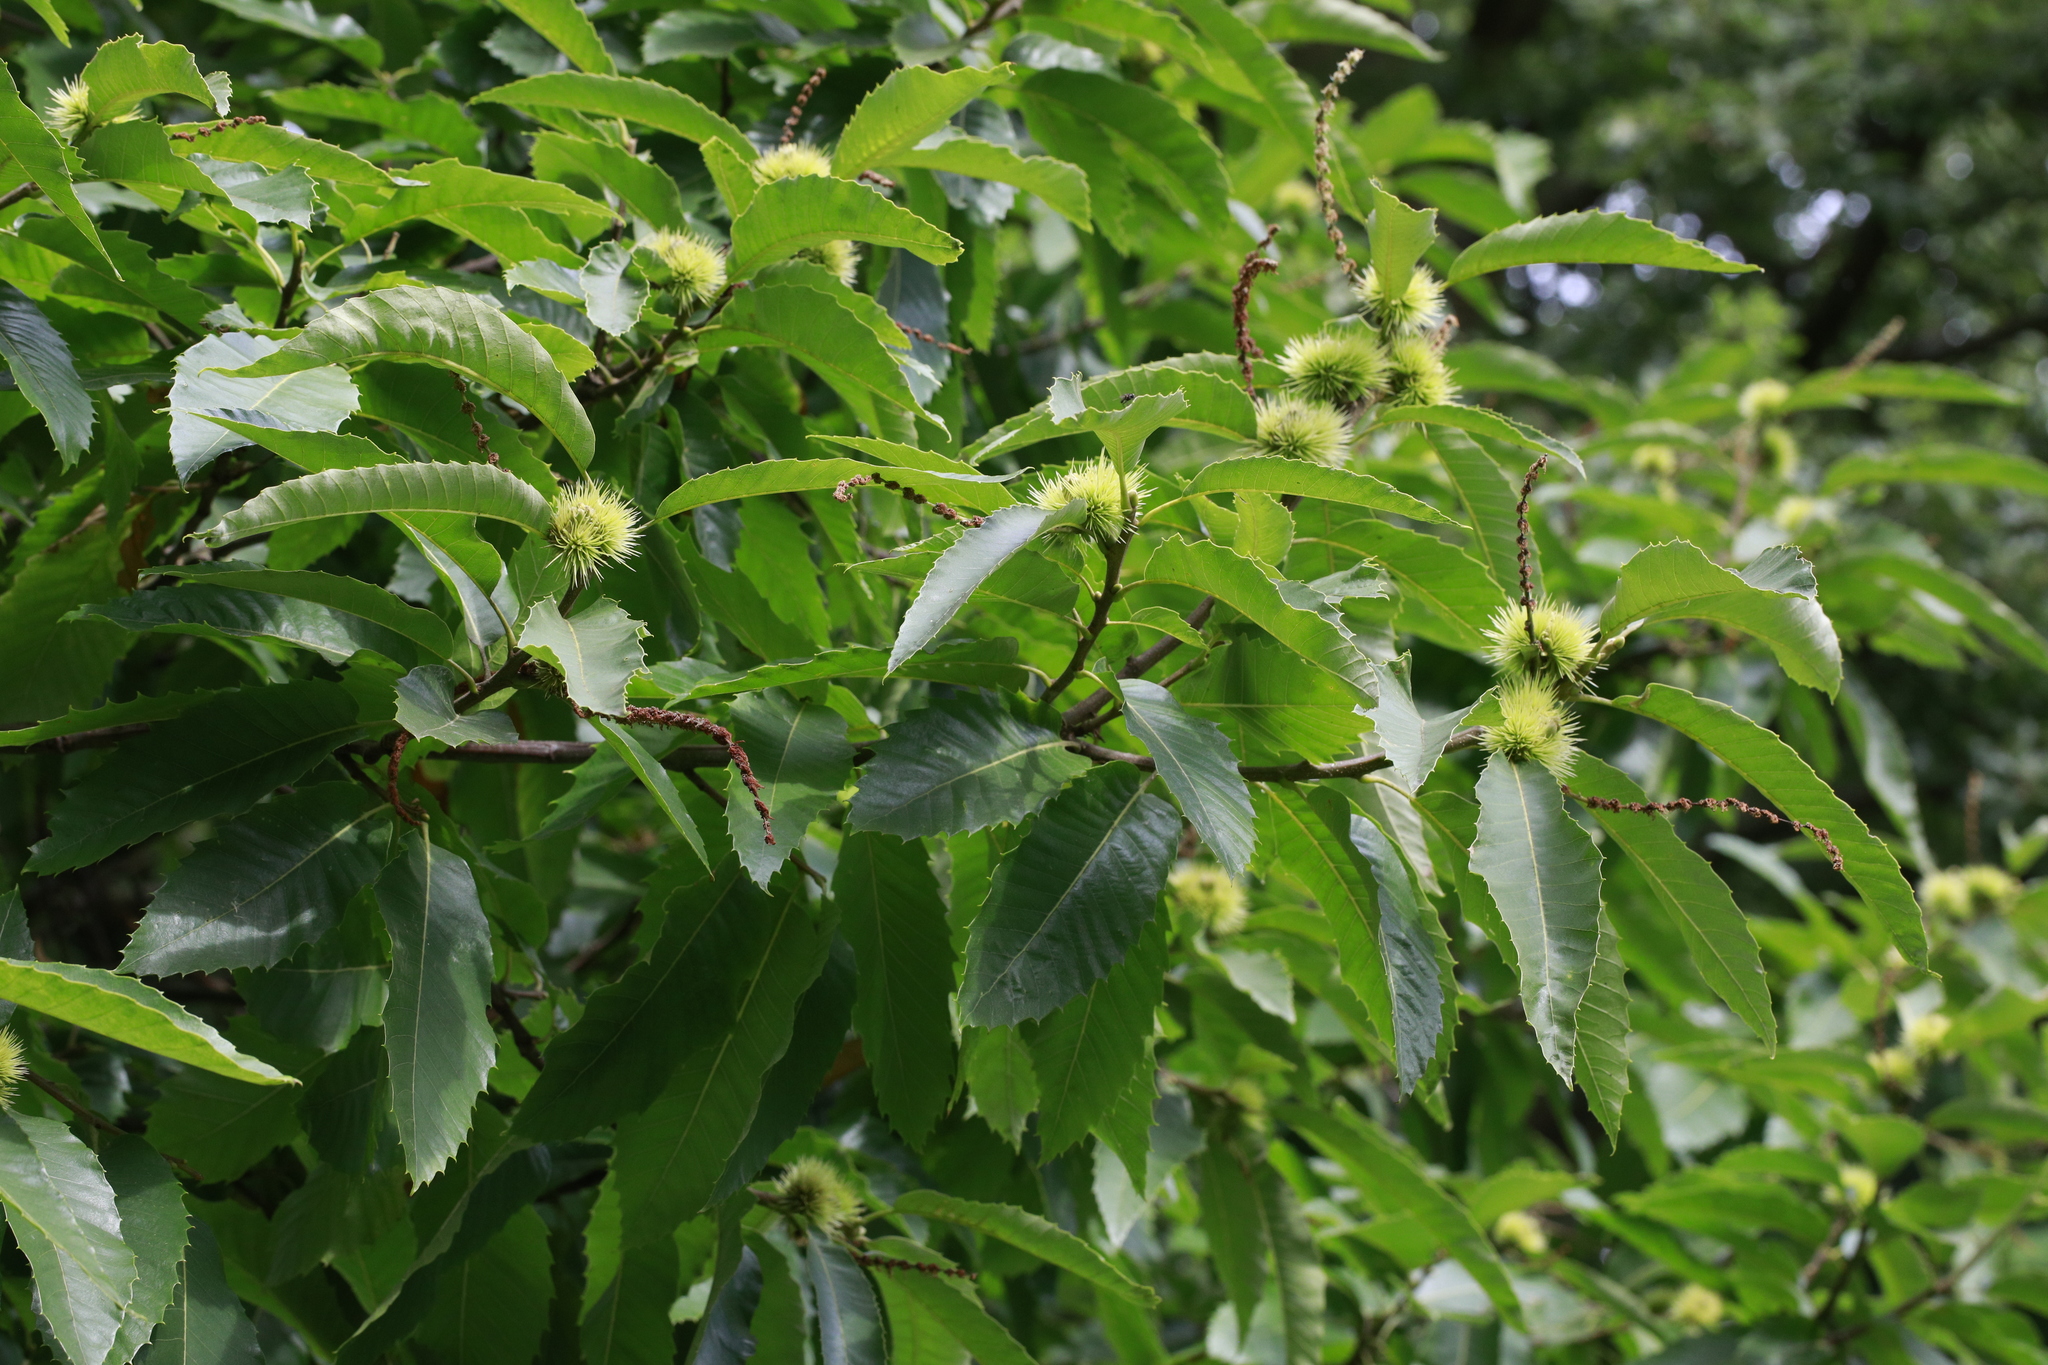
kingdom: Plantae
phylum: Tracheophyta
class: Magnoliopsida
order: Fagales
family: Fagaceae
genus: Castanea
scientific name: Castanea sativa
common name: Sweet chestnut
